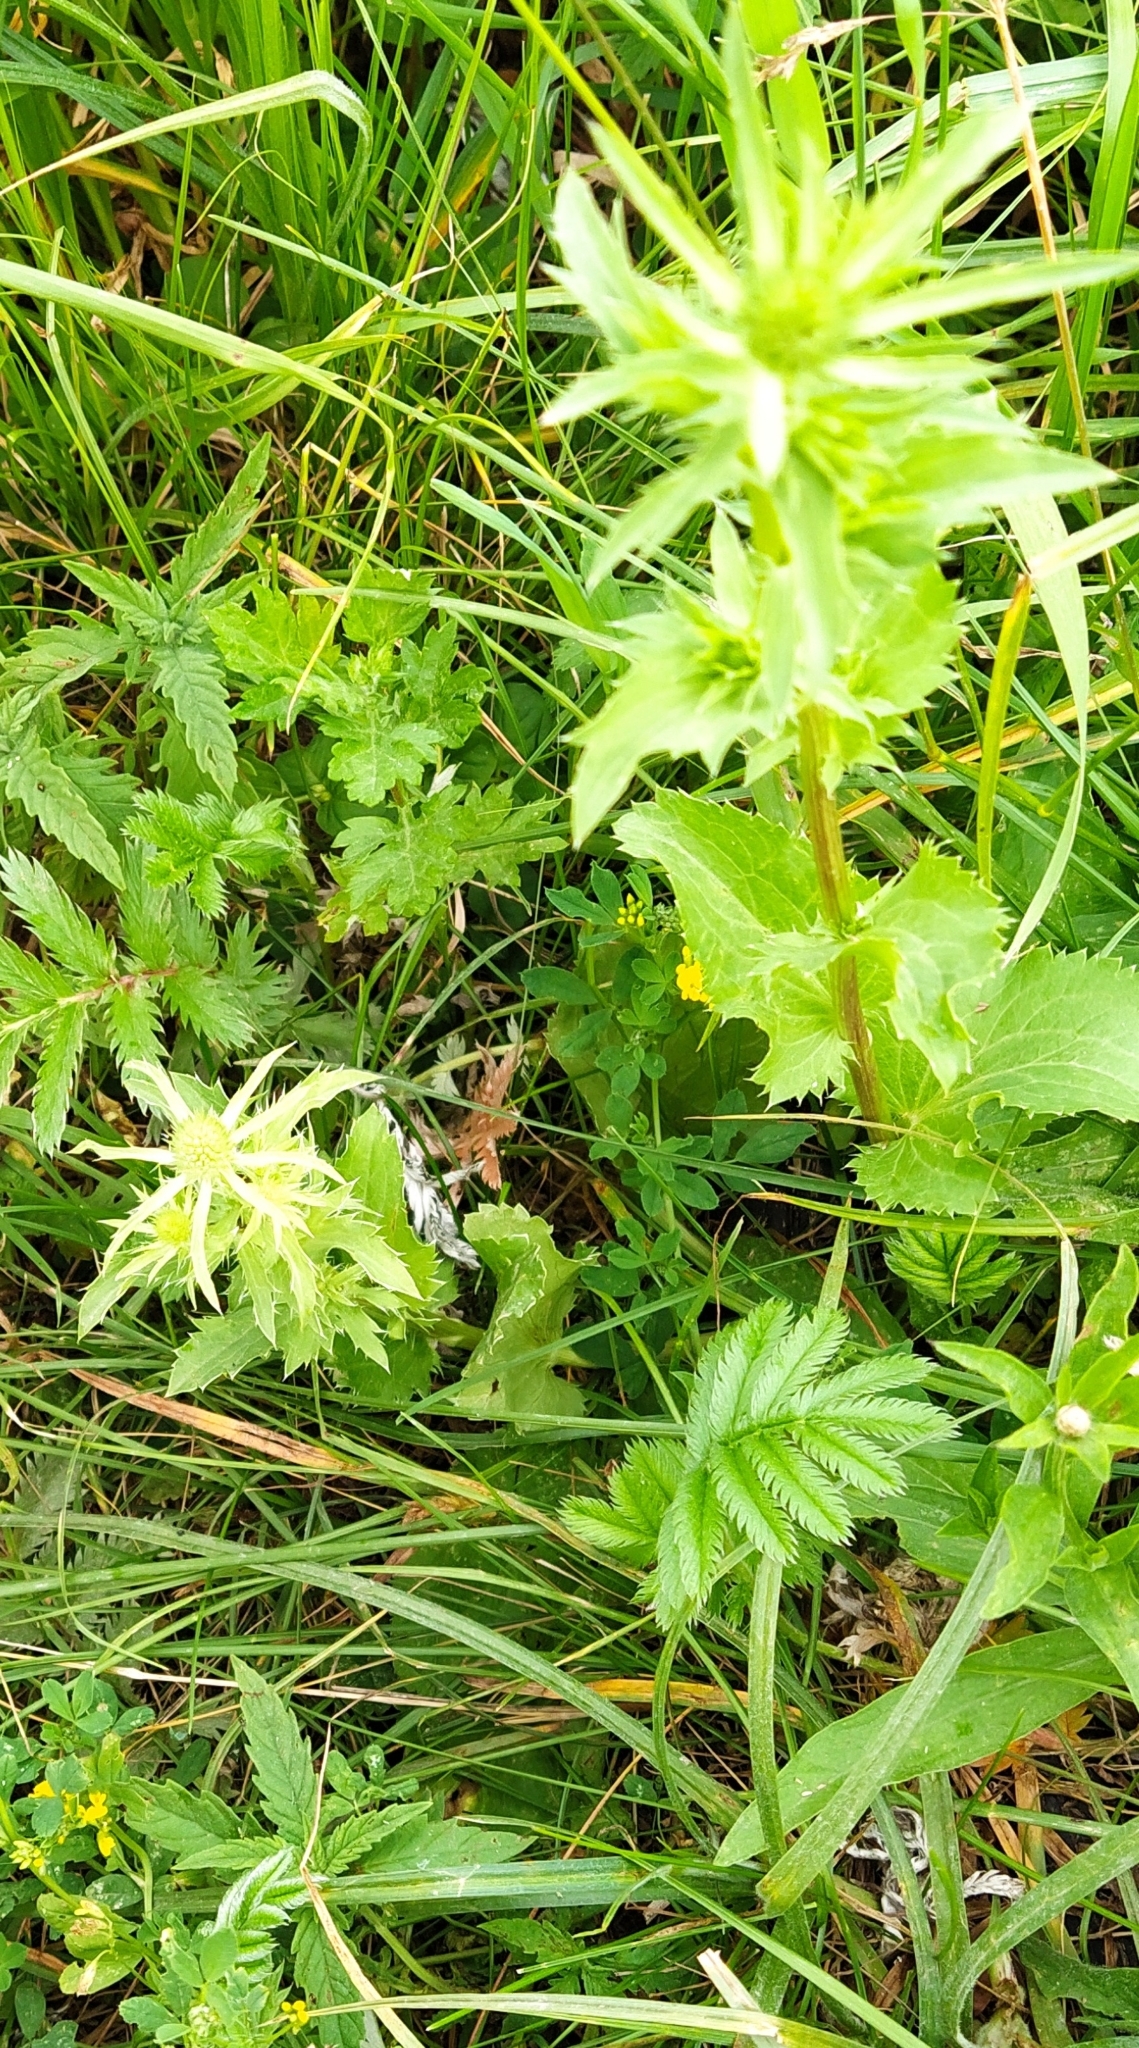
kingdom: Plantae
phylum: Tracheophyta
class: Magnoliopsida
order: Apiales
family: Apiaceae
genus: Eryngium
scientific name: Eryngium planum
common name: Blue eryngo
